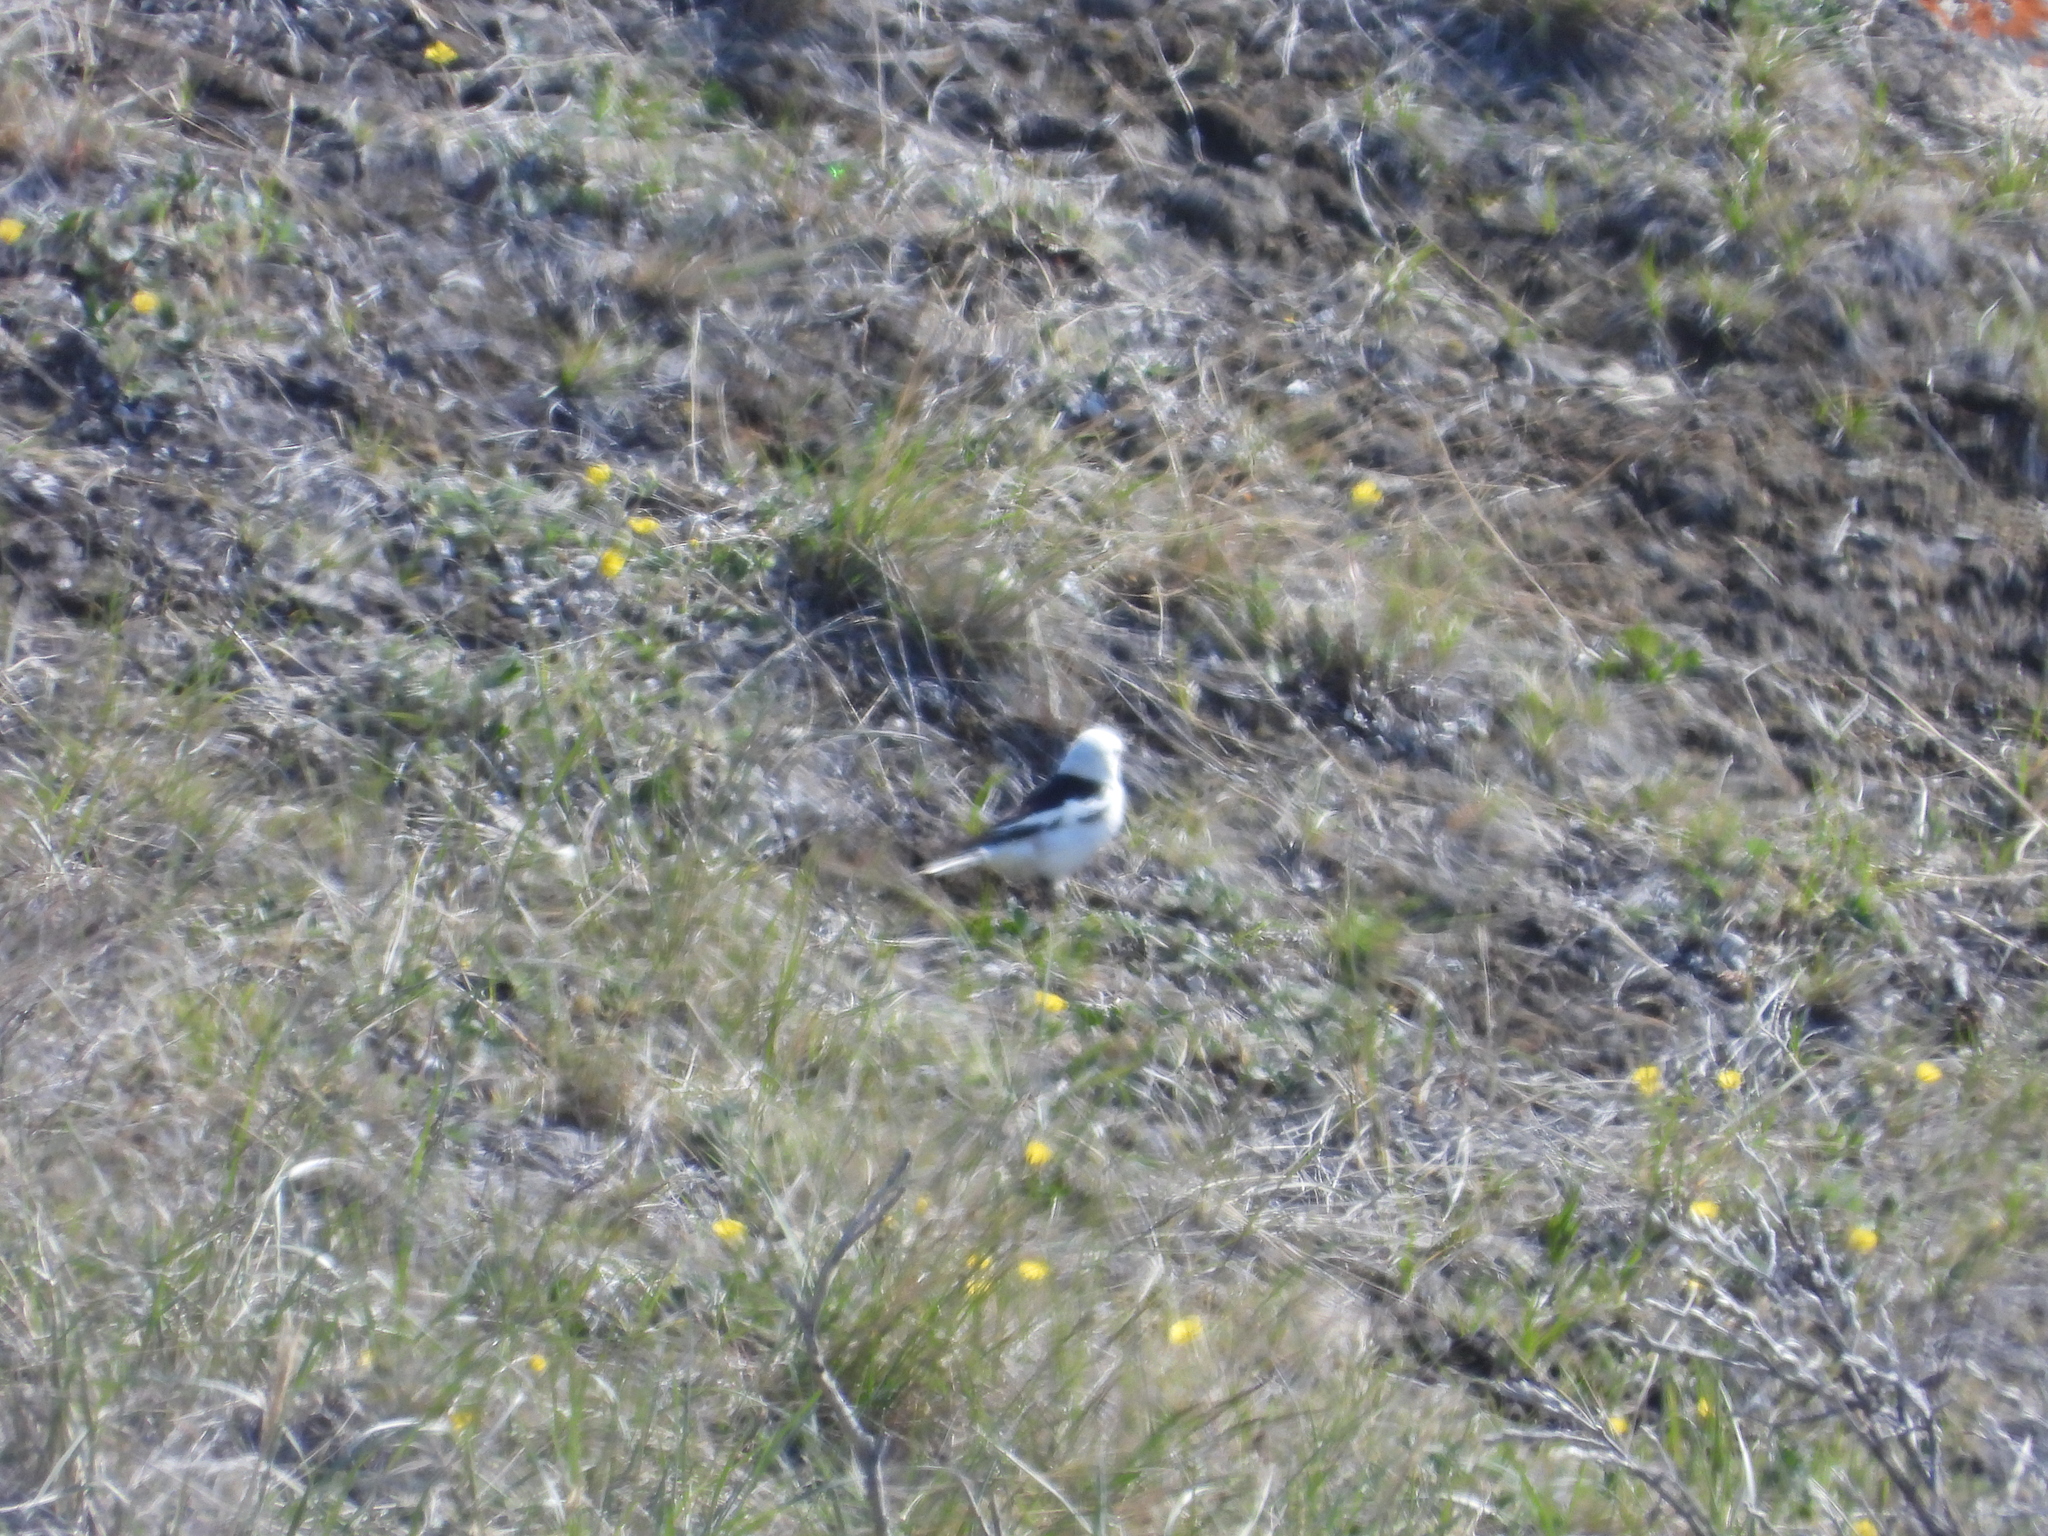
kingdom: Animalia
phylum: Chordata
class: Aves
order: Passeriformes
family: Calcariidae
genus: Plectrophenax
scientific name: Plectrophenax nivalis
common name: Snow bunting
